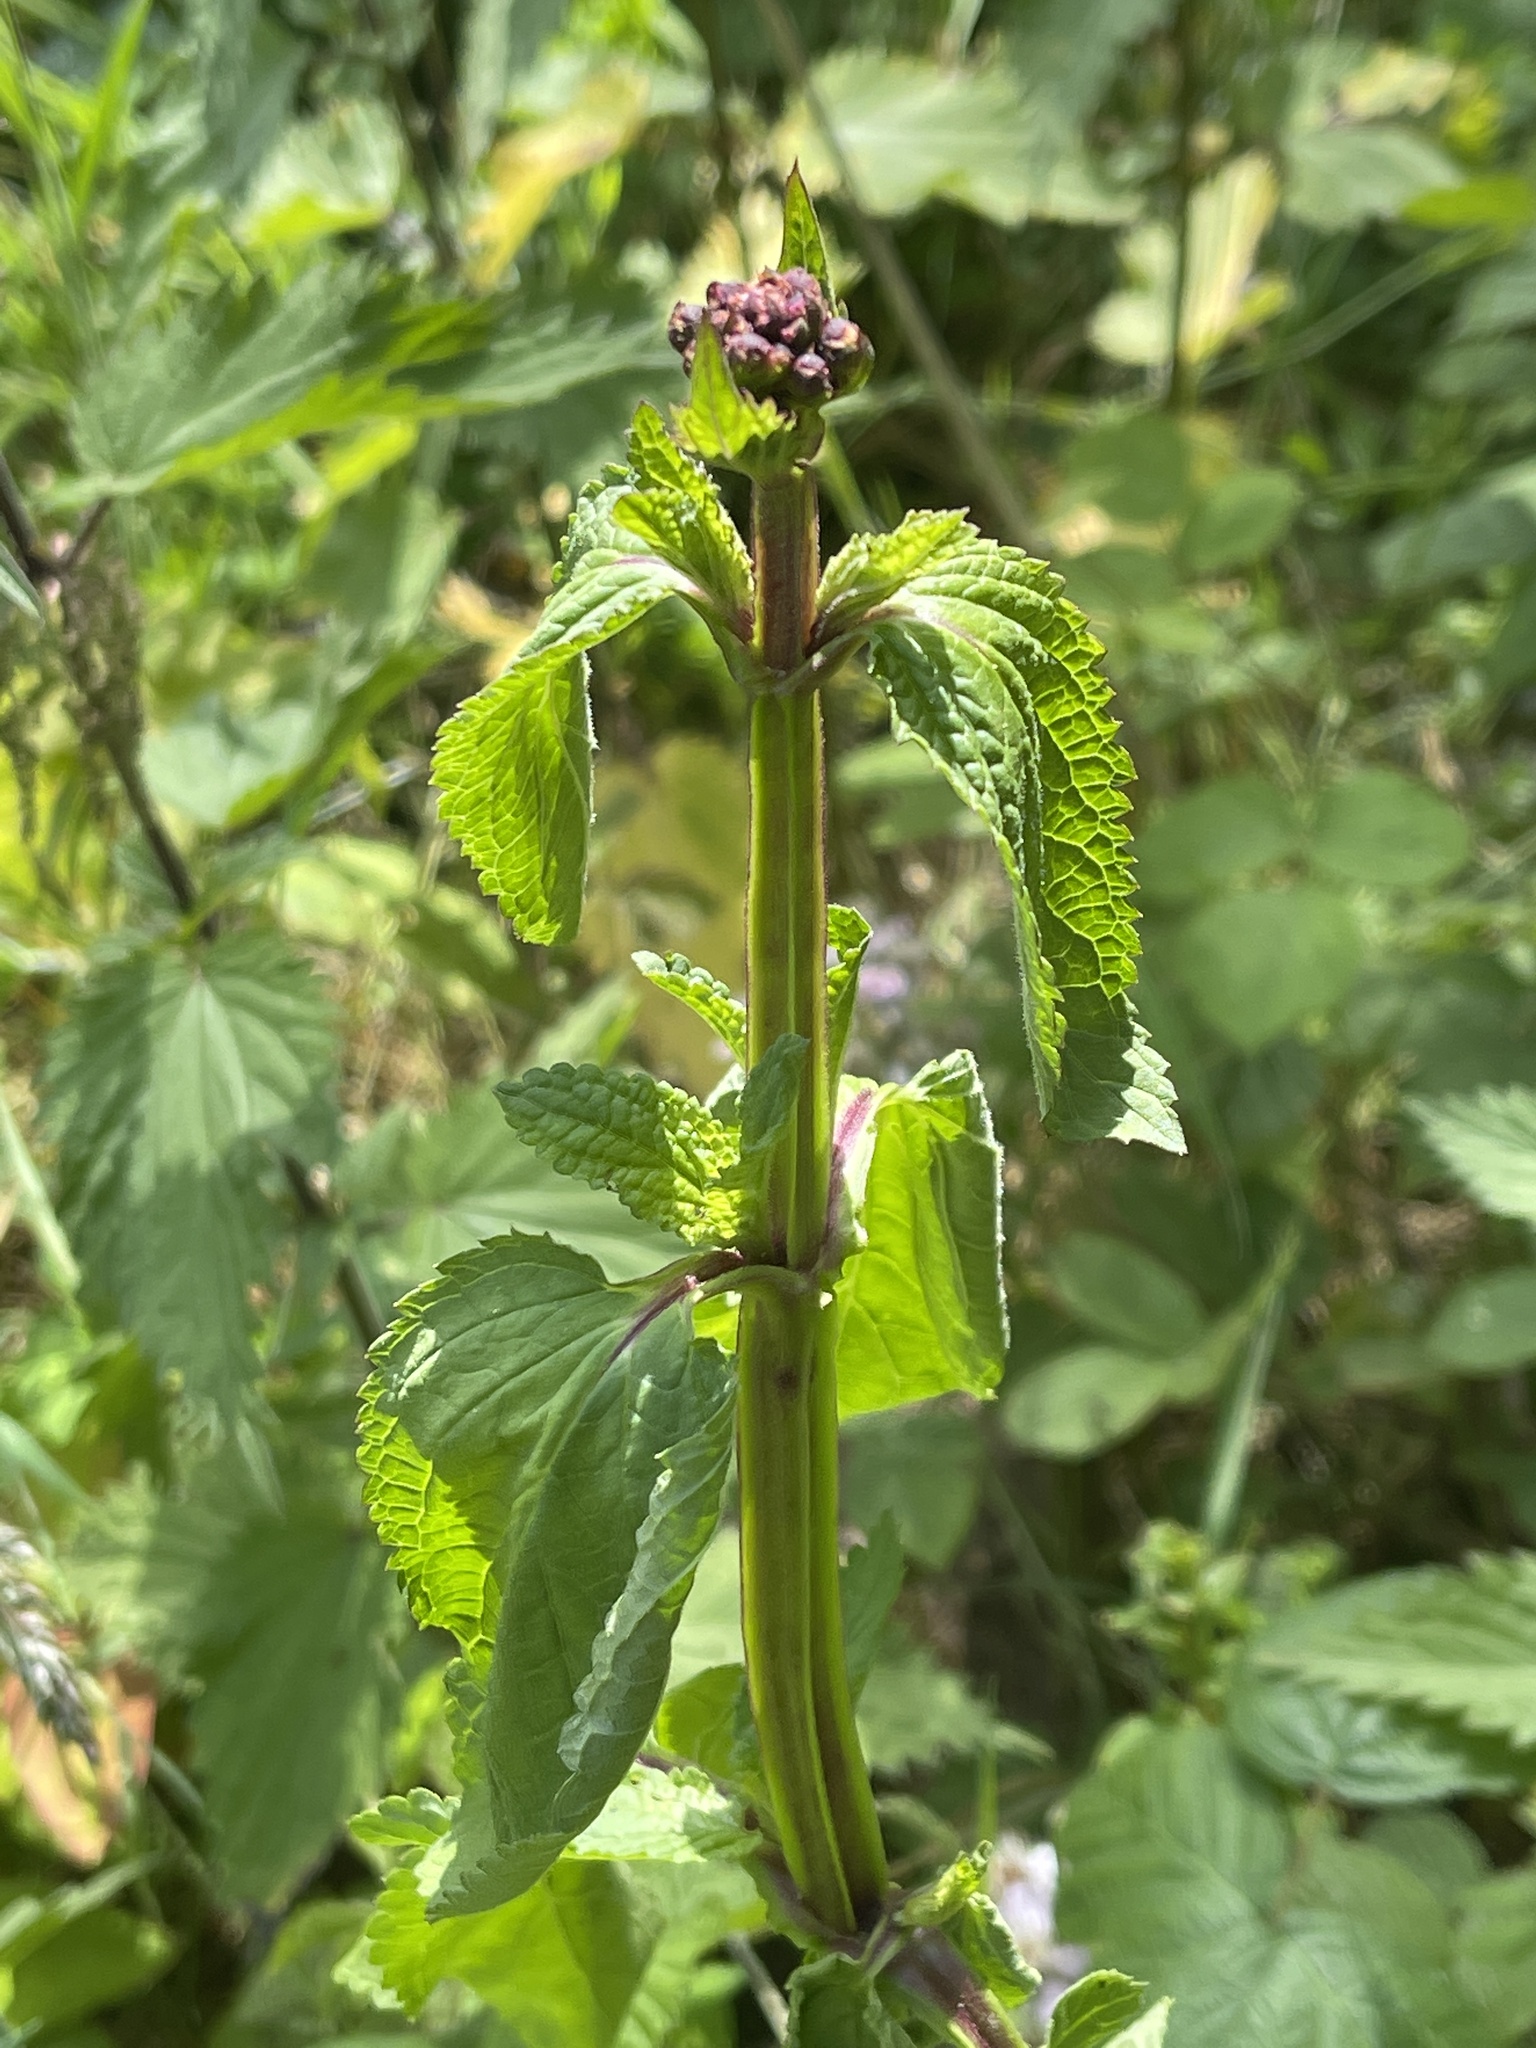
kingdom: Plantae
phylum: Tracheophyta
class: Magnoliopsida
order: Lamiales
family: Scrophulariaceae
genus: Scrophularia
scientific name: Scrophularia nodosa
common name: Common figwort
